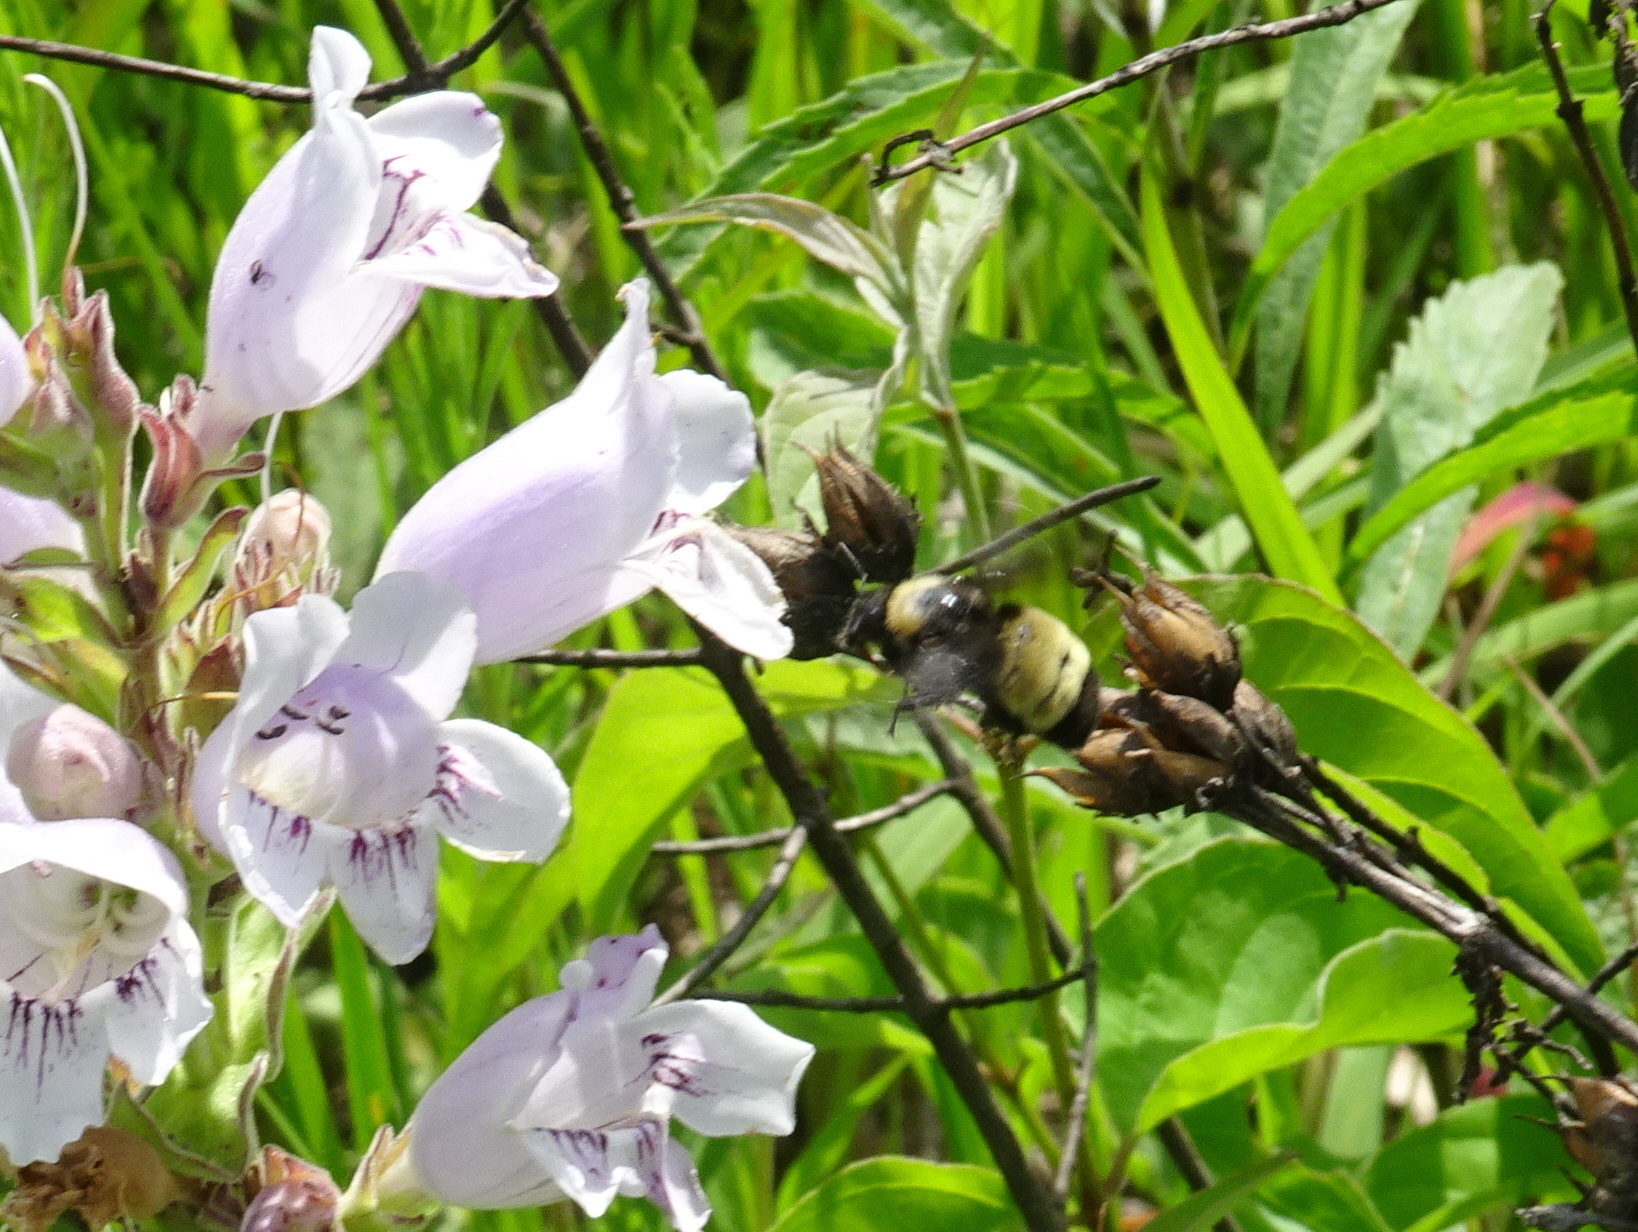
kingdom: Animalia
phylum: Arthropoda
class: Insecta
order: Hymenoptera
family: Apidae
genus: Bombus
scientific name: Bombus pensylvanicus
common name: Bumble bee
